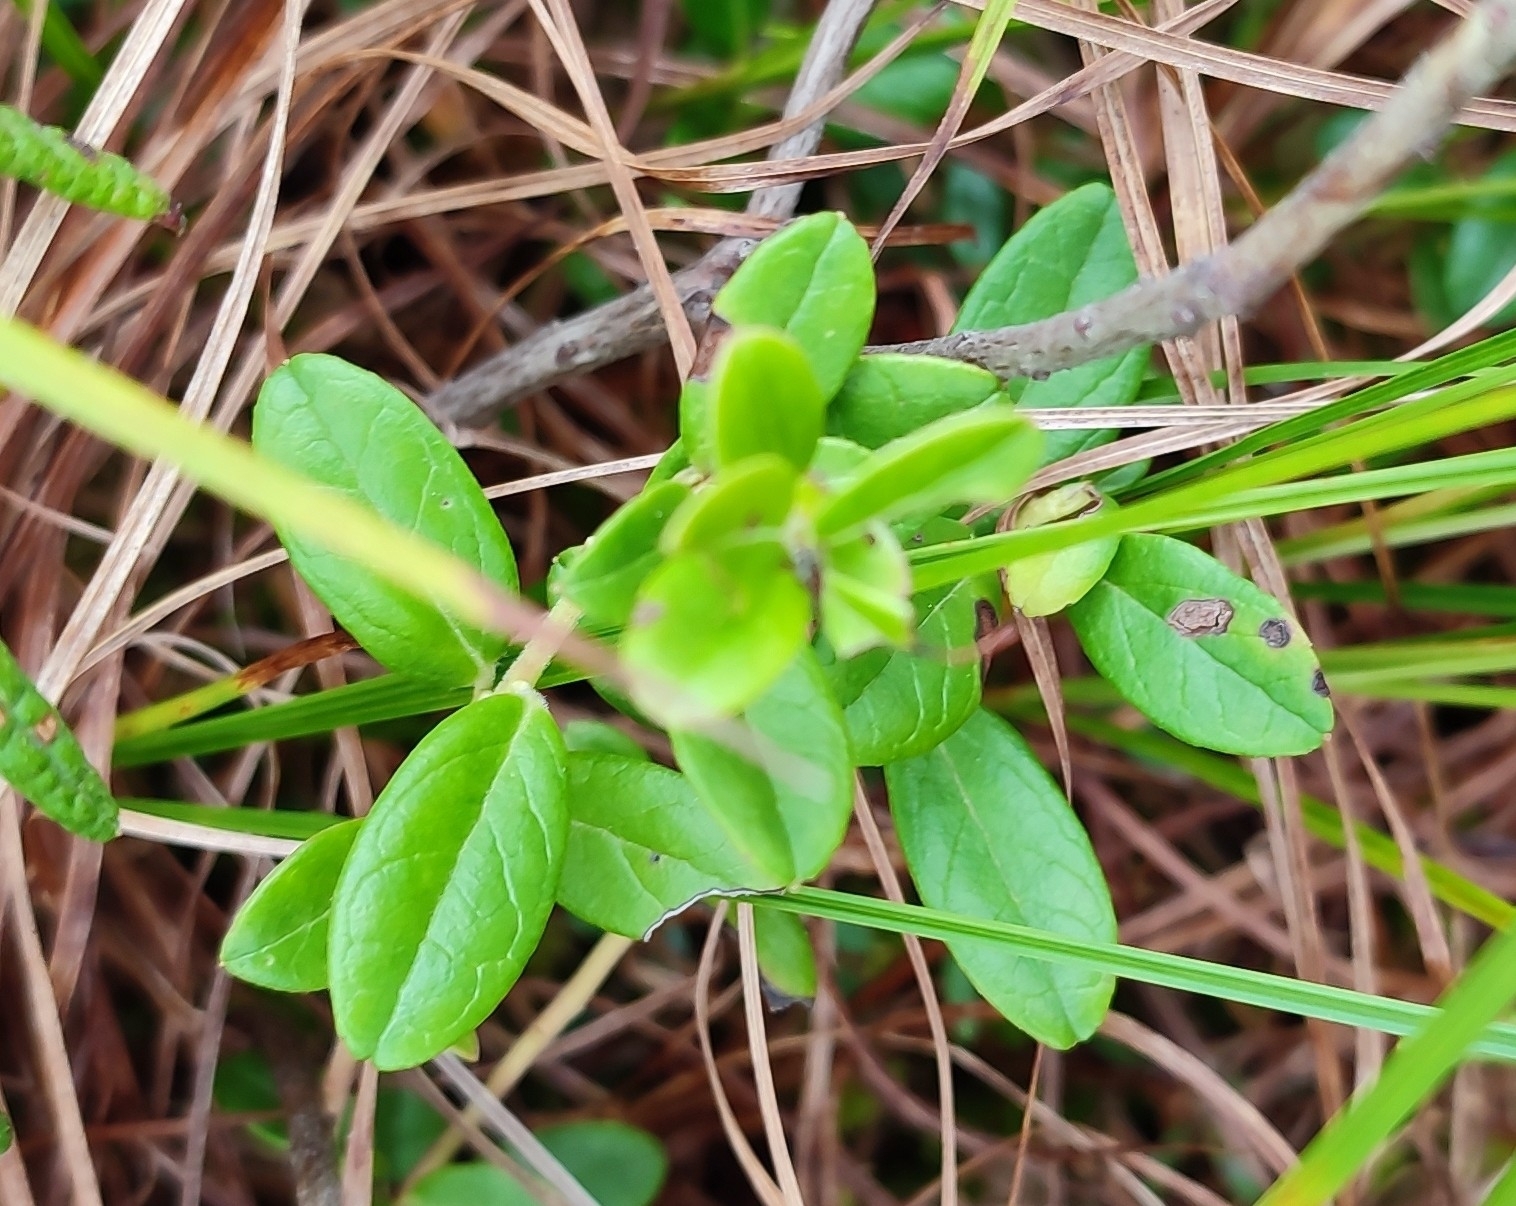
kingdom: Plantae
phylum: Tracheophyta
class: Magnoliopsida
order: Ericales
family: Ericaceae
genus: Vaccinium
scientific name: Vaccinium vitis-idaea
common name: Cowberry
